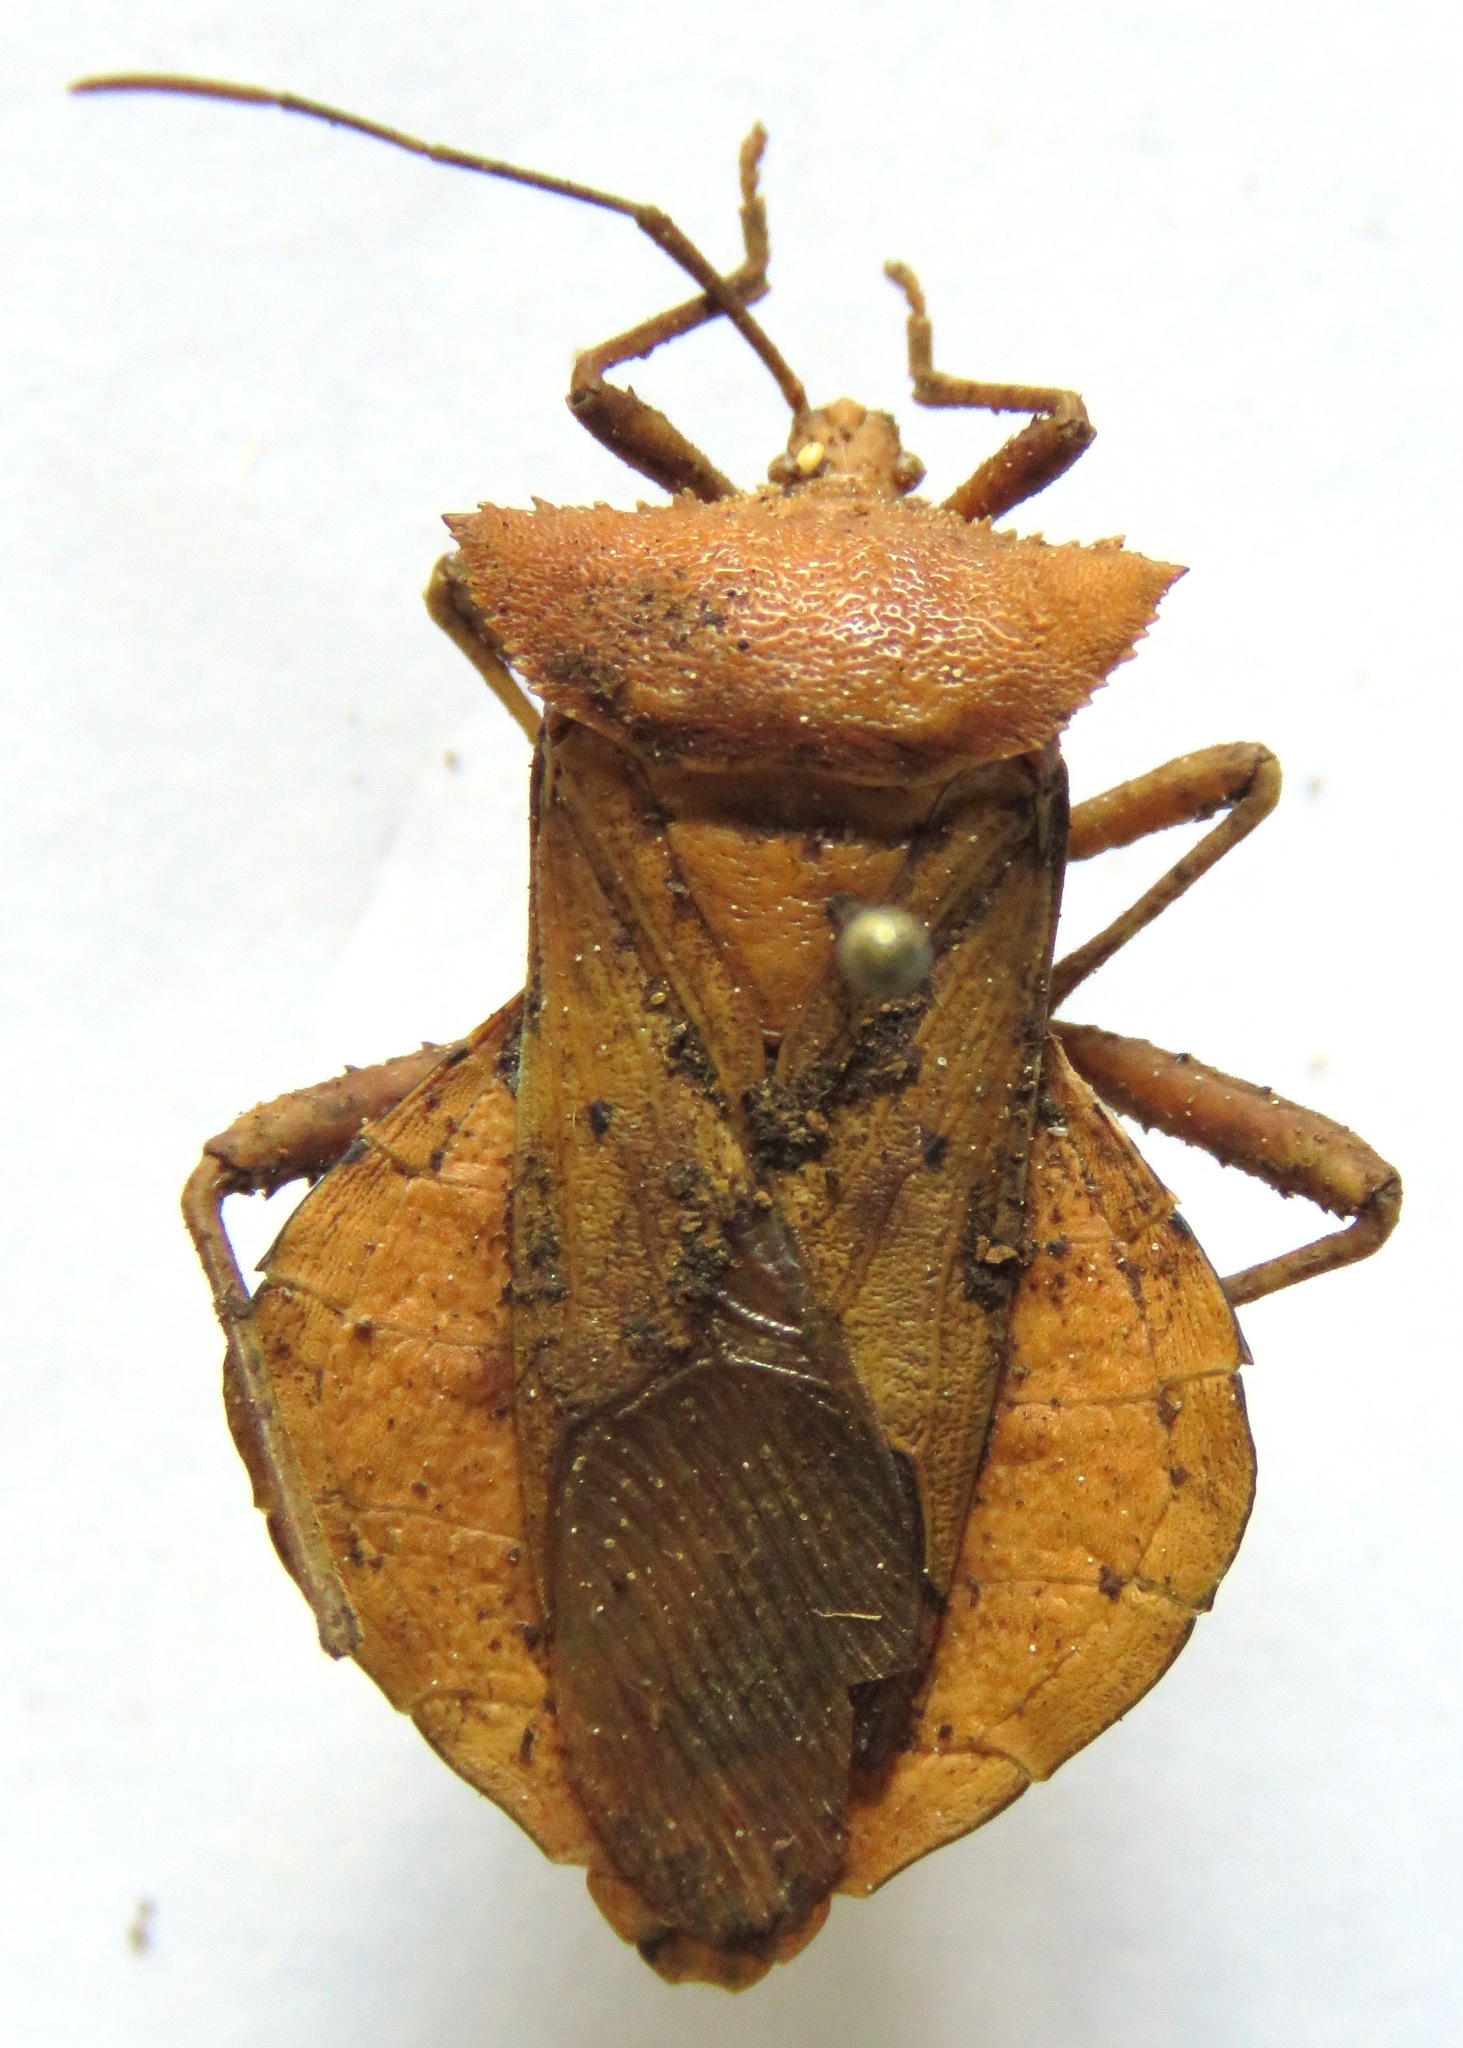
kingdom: Animalia
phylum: Arthropoda
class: Insecta
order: Hemiptera
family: Coreidae
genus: Mozena
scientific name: Mozena lutea
